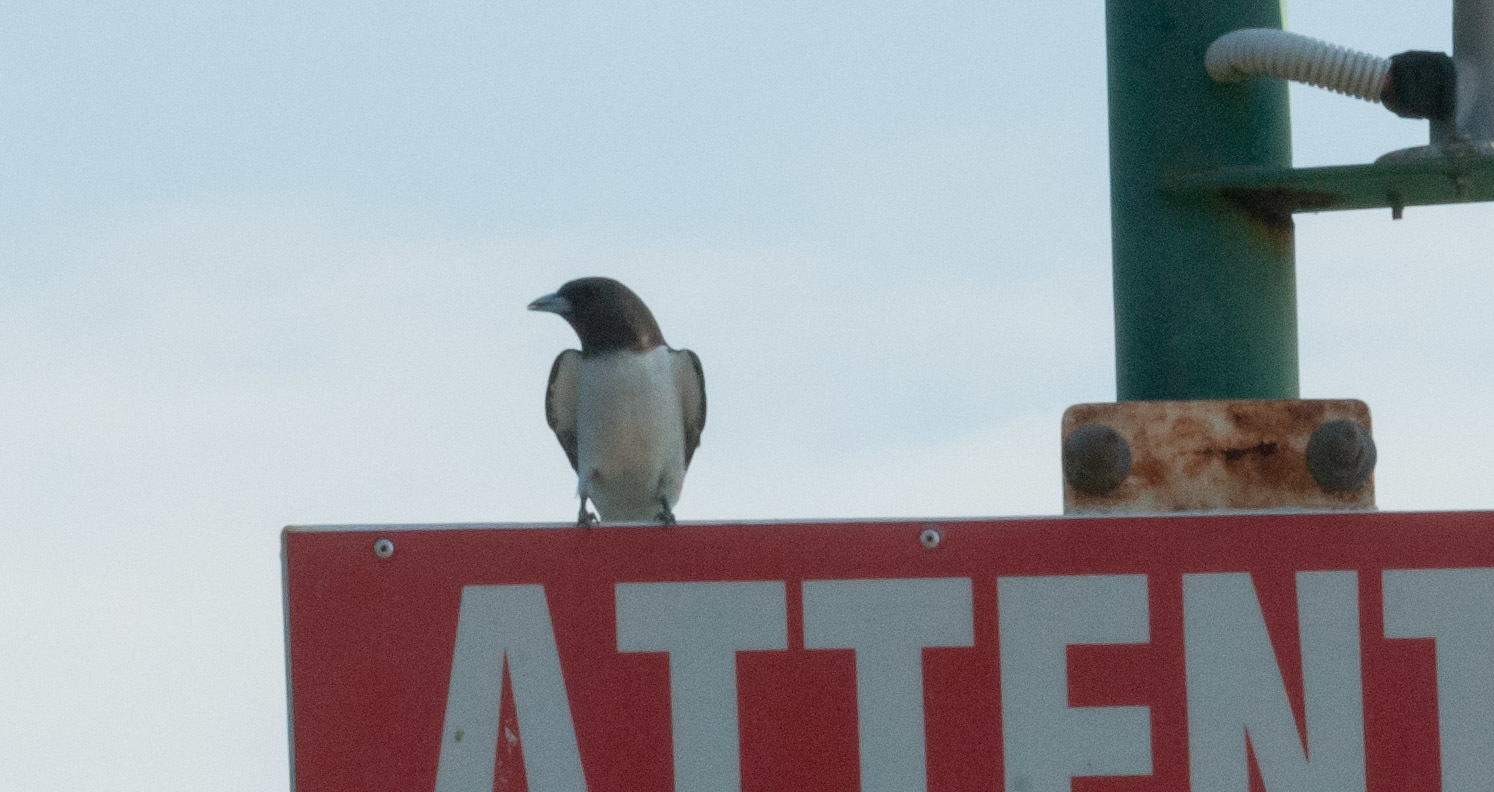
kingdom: Animalia
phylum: Chordata
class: Aves
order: Passeriformes
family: Artamidae
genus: Artamus
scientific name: Artamus leucoryn
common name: White-breasted woodswallow
